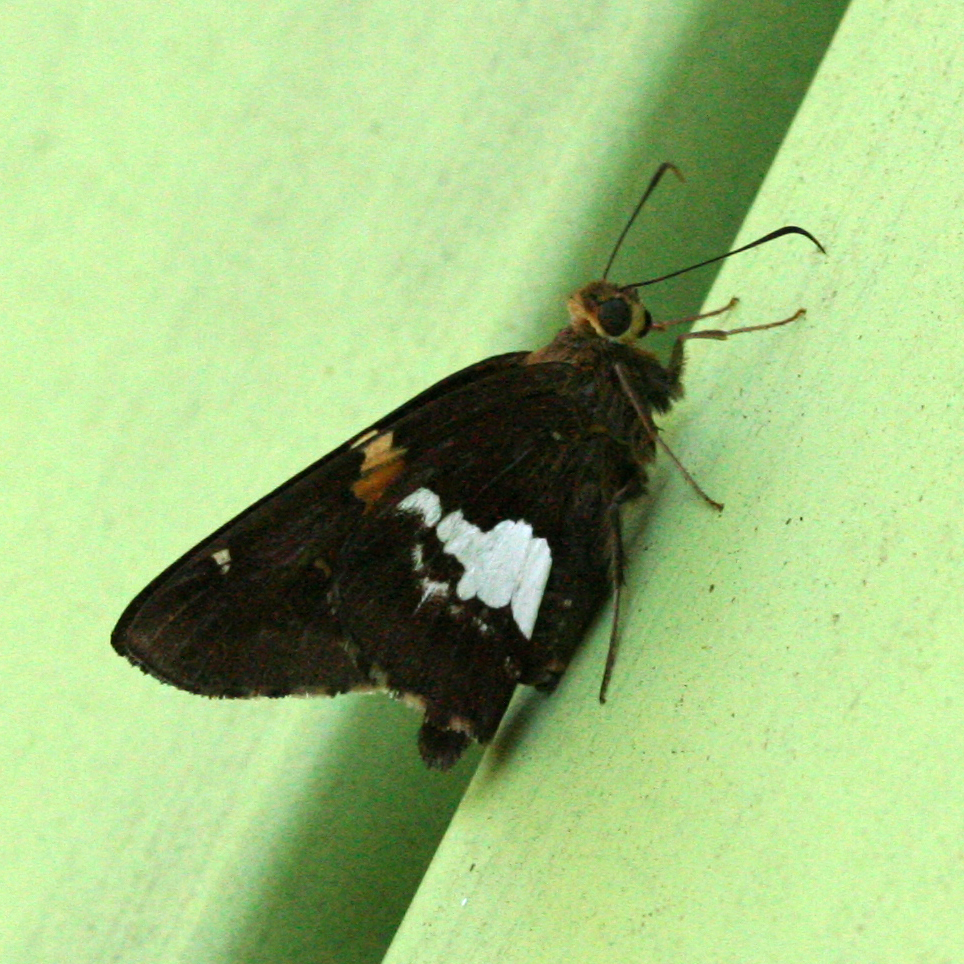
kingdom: Animalia
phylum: Arthropoda
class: Insecta
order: Lepidoptera
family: Hesperiidae
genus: Epargyreus
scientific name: Epargyreus clarus
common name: Silver-spotted skipper
